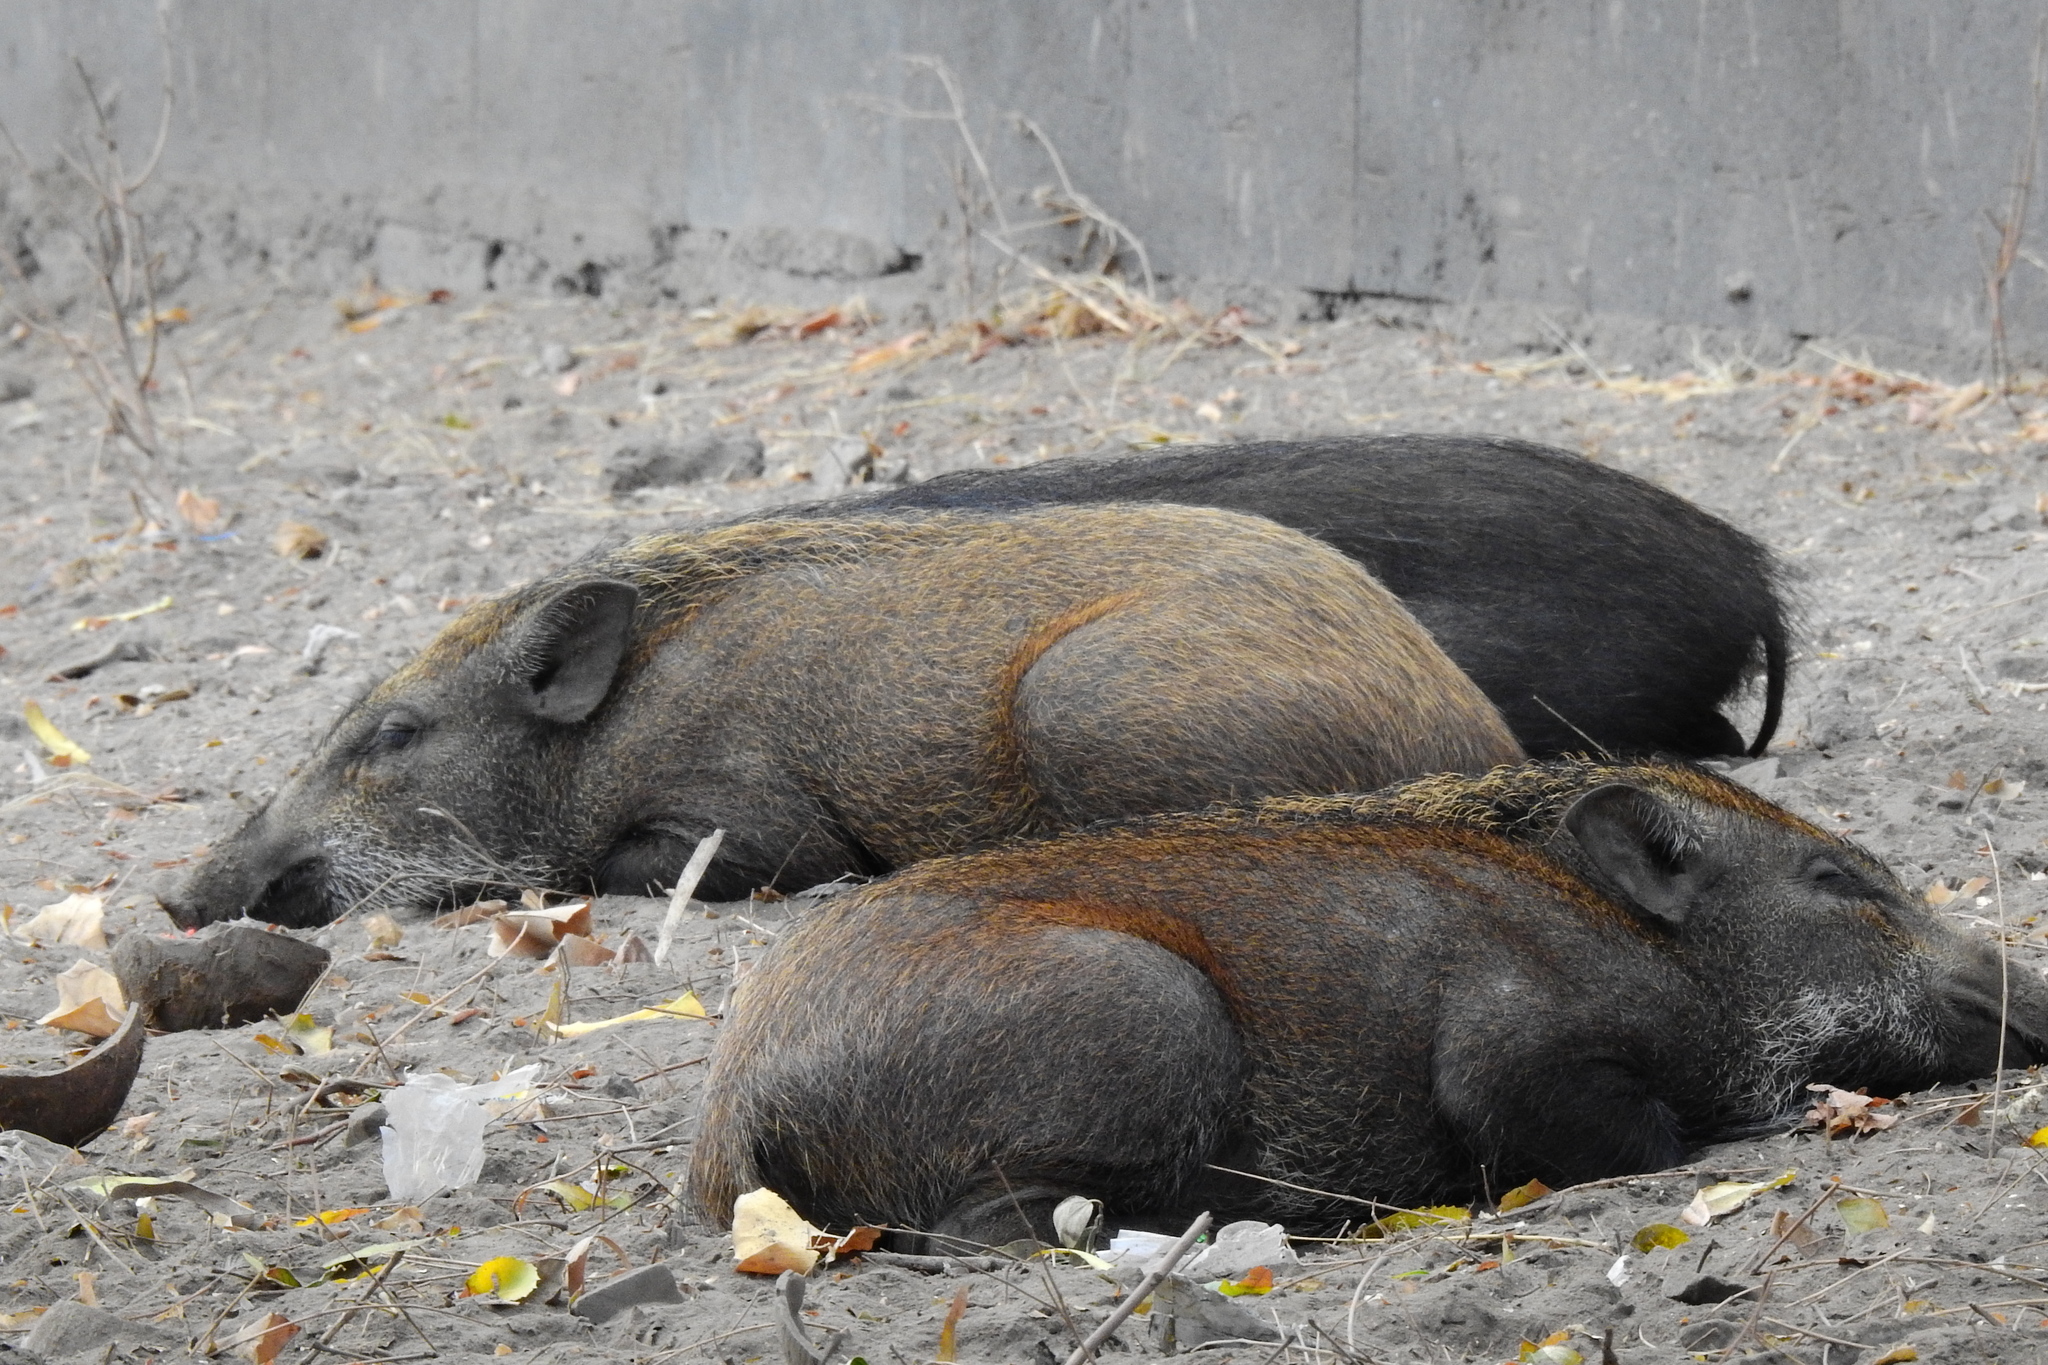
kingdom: Animalia
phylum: Chordata
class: Mammalia
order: Artiodactyla
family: Suidae
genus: Sus
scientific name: Sus scrofa
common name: Wild boar
